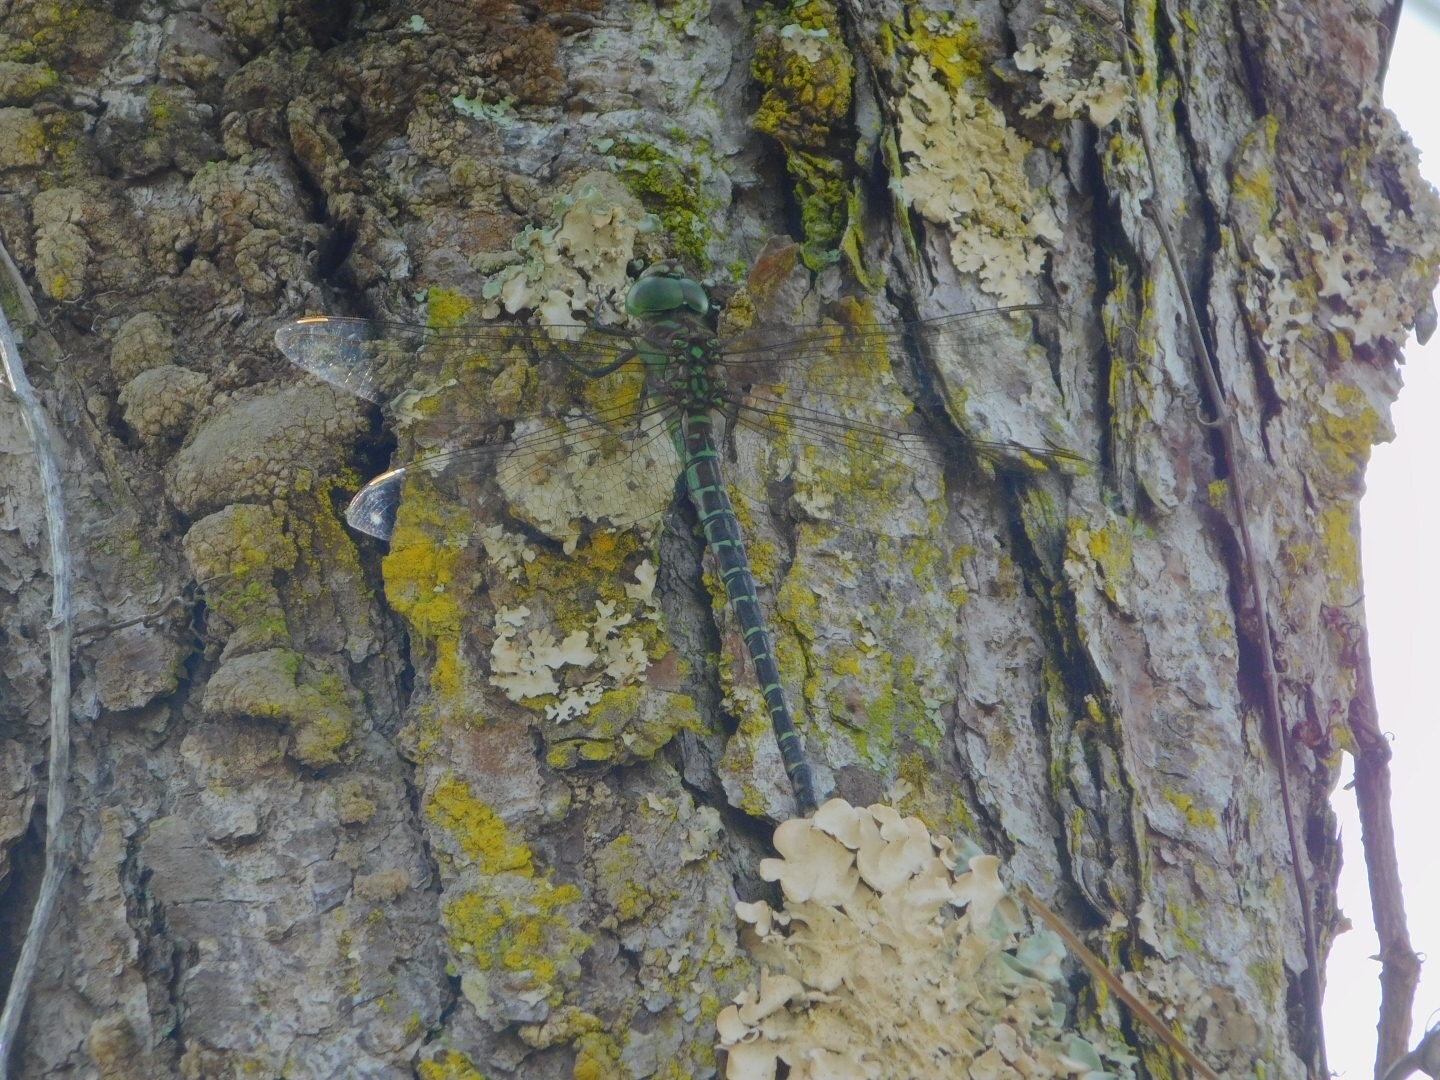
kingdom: Animalia
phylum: Arthropoda
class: Insecta
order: Odonata
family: Aeshnidae
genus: Coryphaeschna
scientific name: Coryphaeschna ingens
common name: Regal darner
